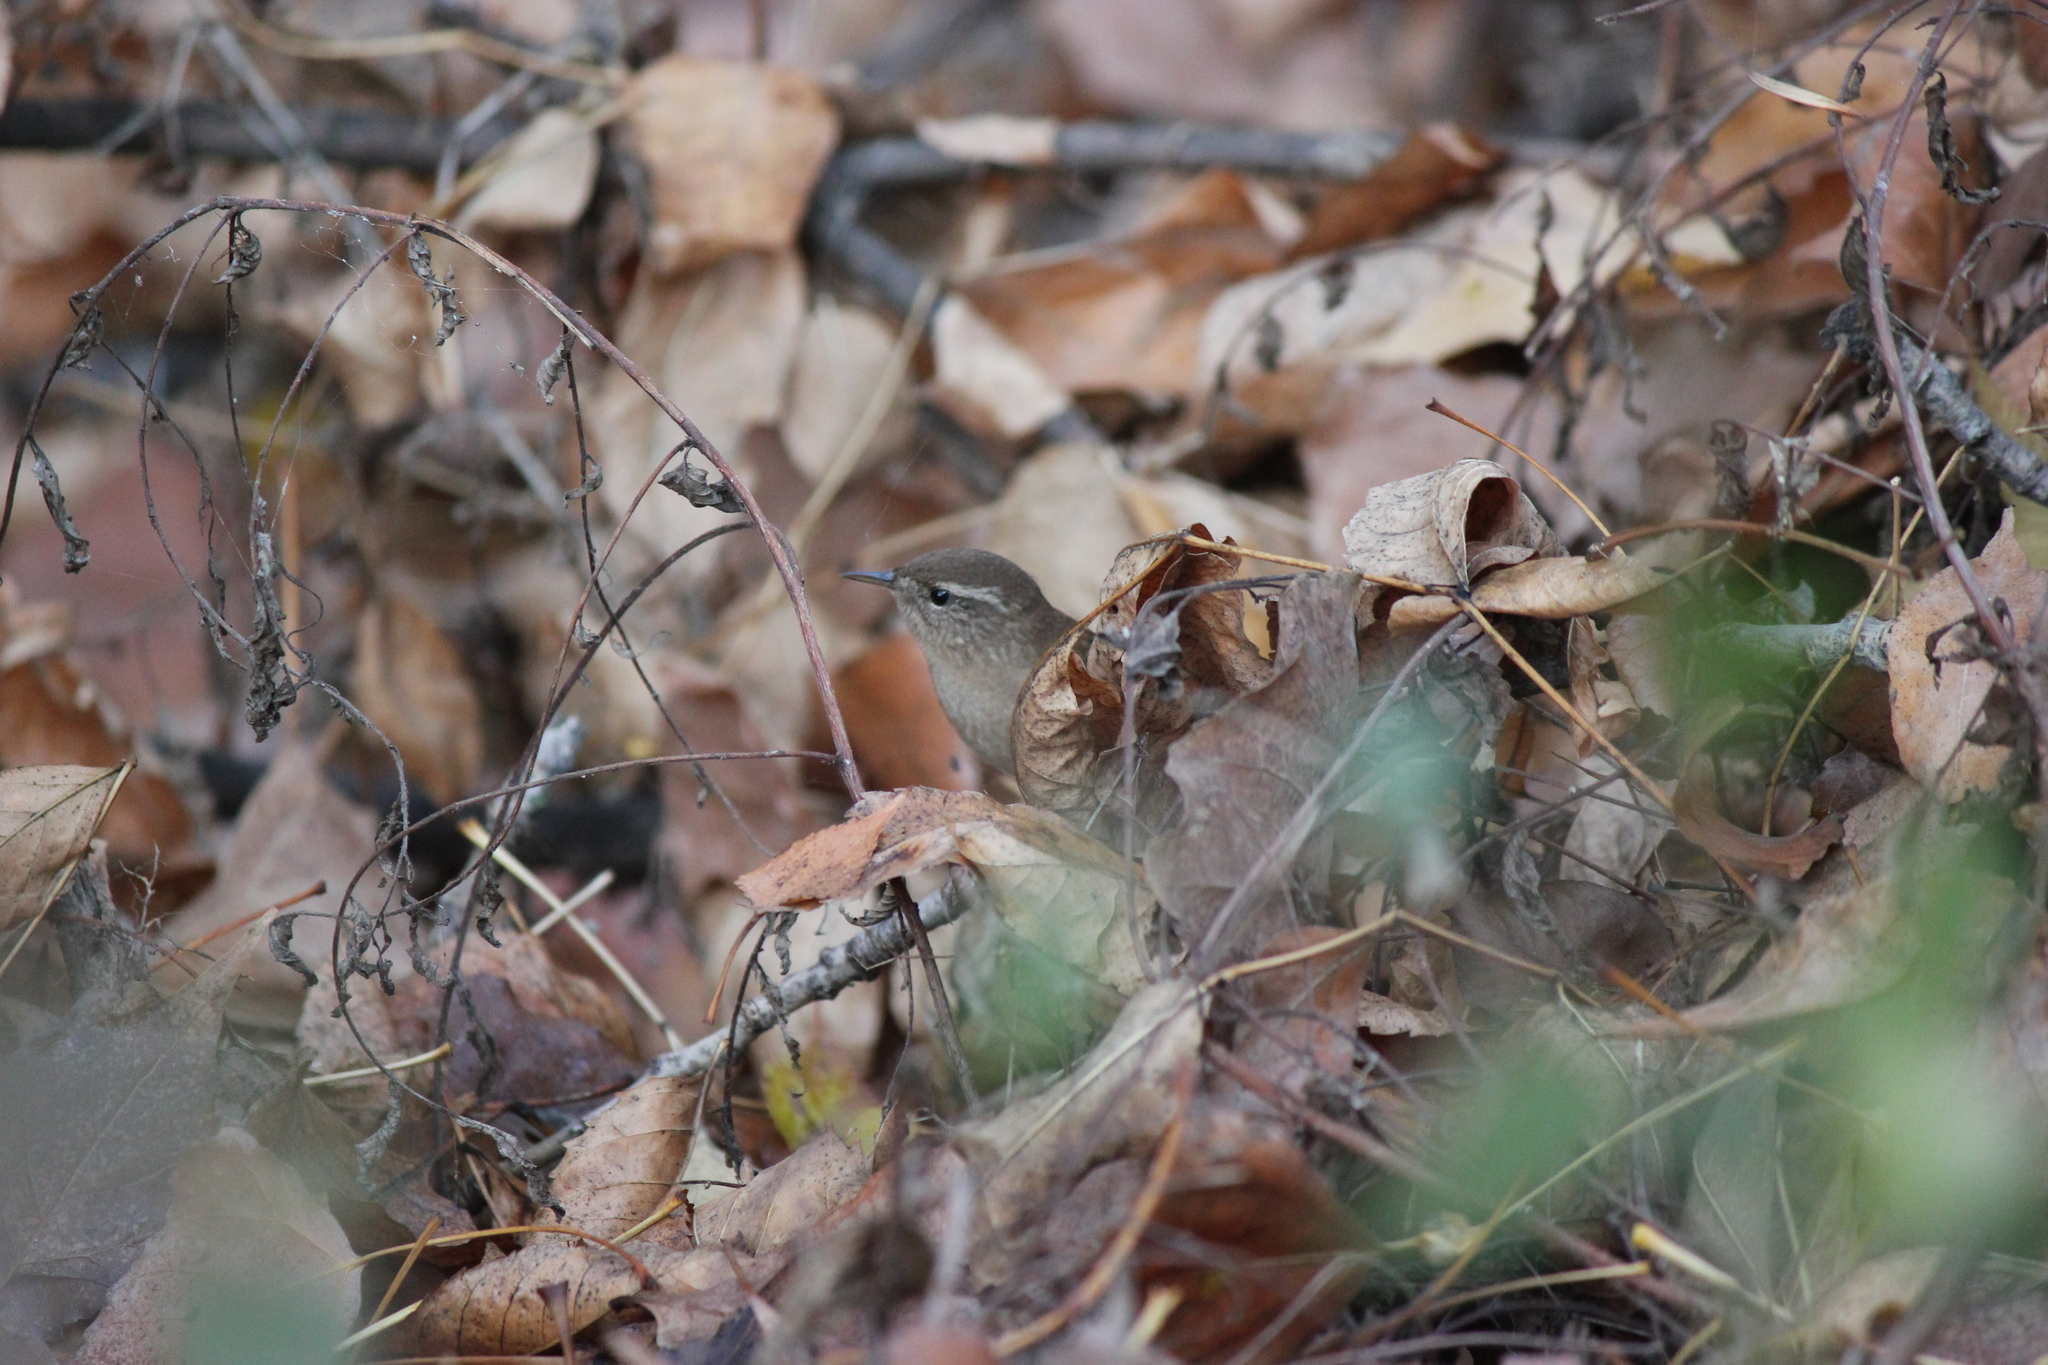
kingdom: Animalia
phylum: Chordata
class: Aves
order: Passeriformes
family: Troglodytidae
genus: Troglodytes
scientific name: Troglodytes troglodytes
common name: Eurasian wren
